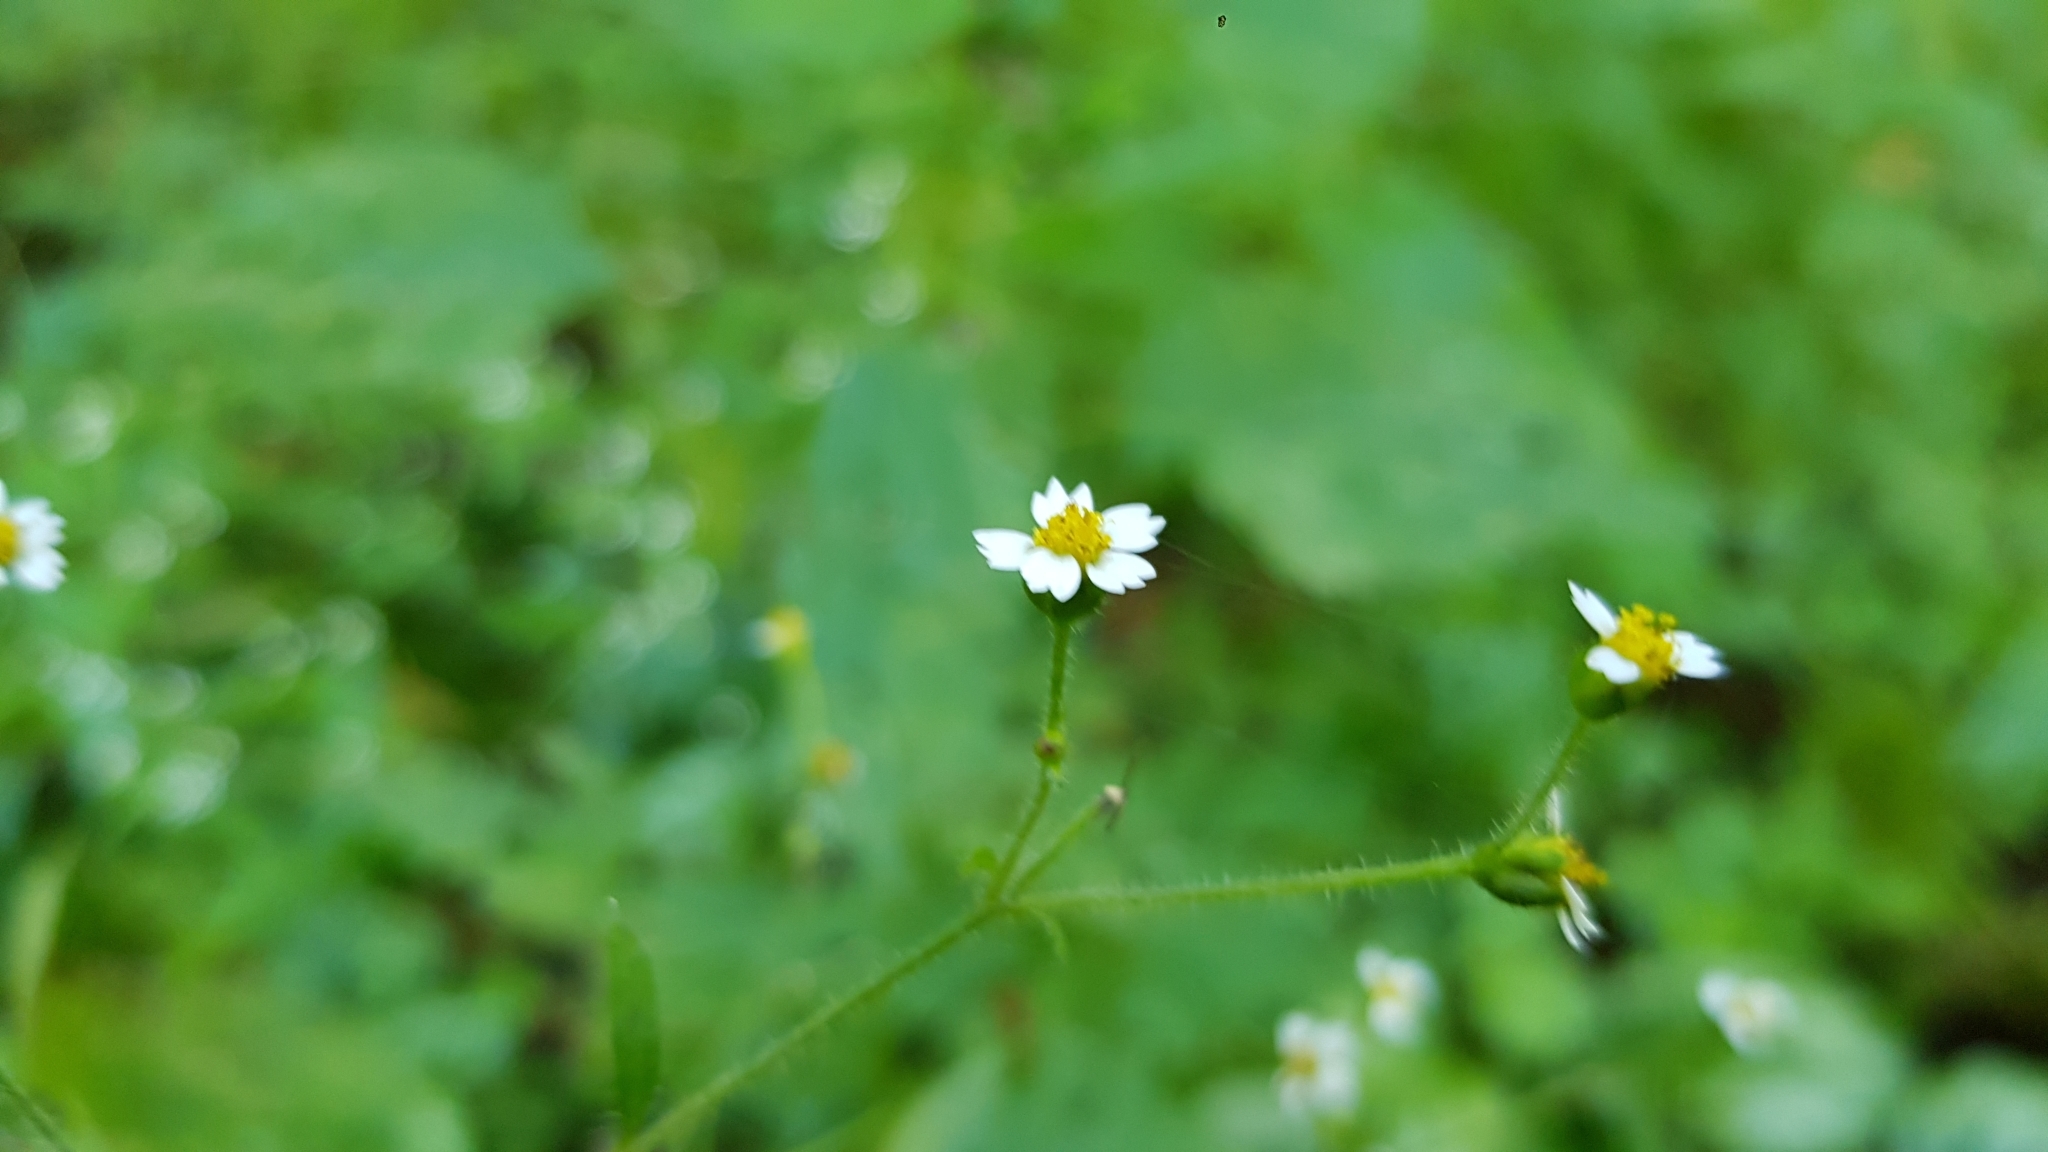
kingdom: Plantae
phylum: Tracheophyta
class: Magnoliopsida
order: Asterales
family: Asteraceae
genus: Galinsoga
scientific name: Galinsoga quadriradiata
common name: Shaggy soldier
